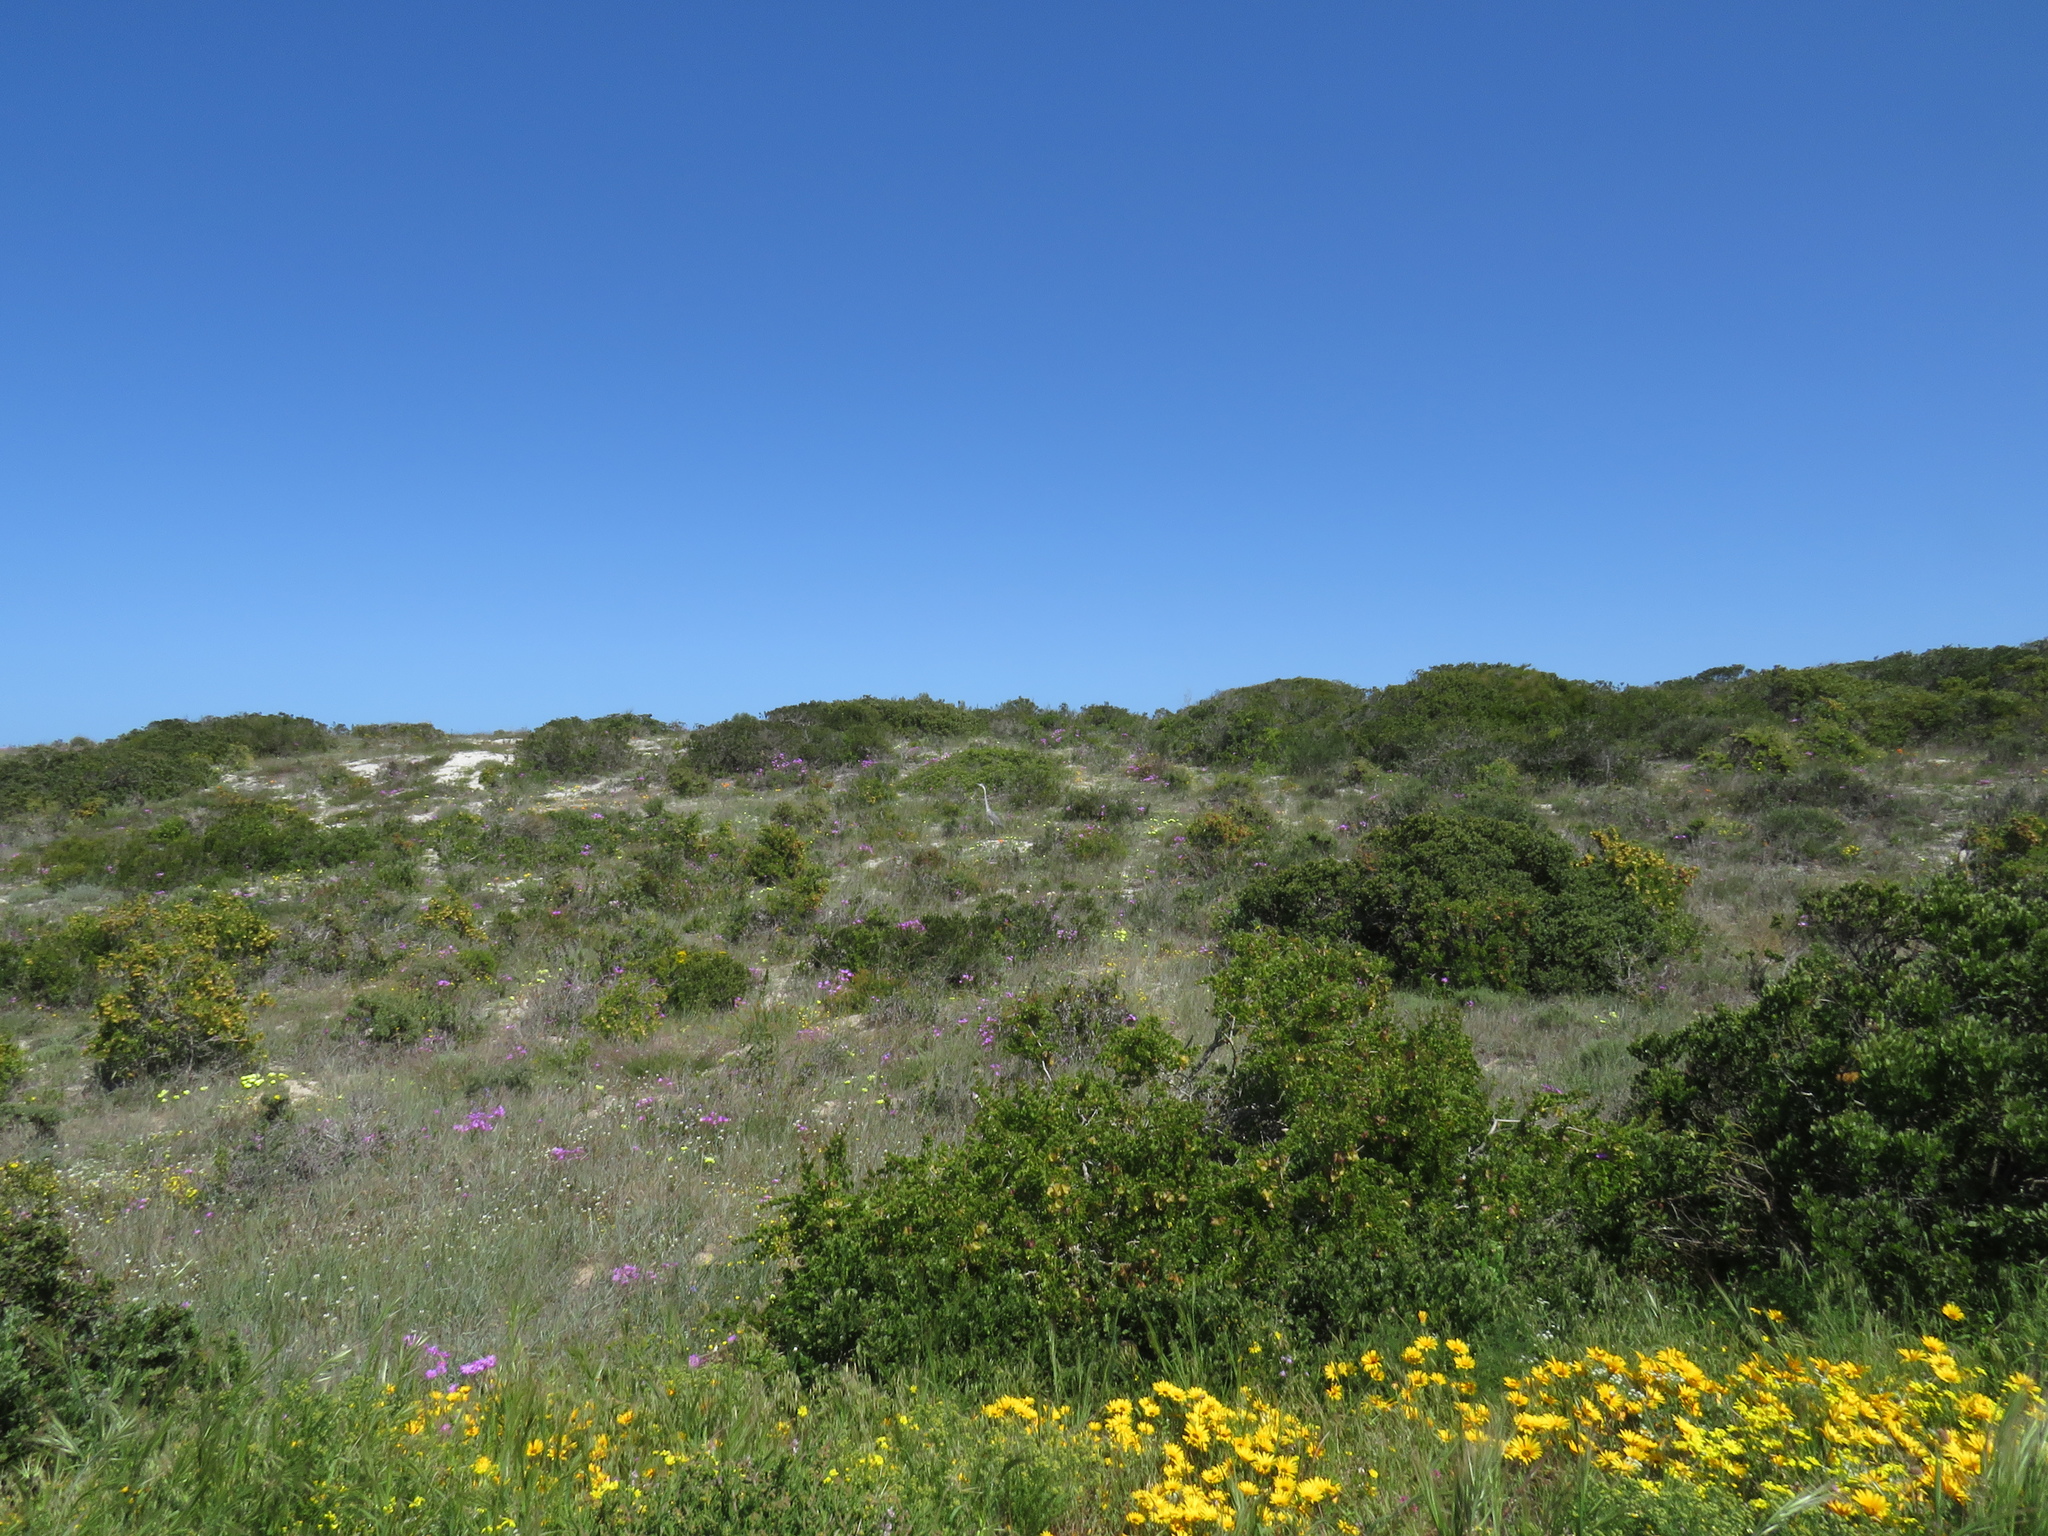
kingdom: Animalia
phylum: Chordata
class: Aves
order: Pelecaniformes
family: Ardeidae
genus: Ardea
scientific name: Ardea melanocephala
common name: Black-headed heron
